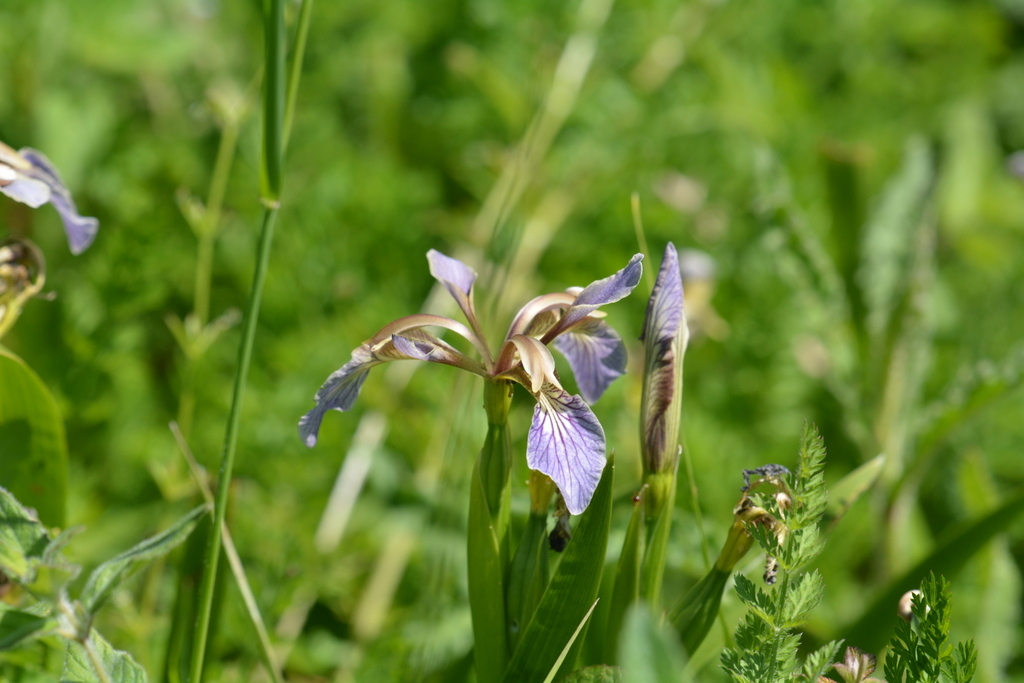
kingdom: Plantae
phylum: Tracheophyta
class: Liliopsida
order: Asparagales
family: Iridaceae
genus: Iris
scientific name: Iris foetidissima
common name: Stinking iris
